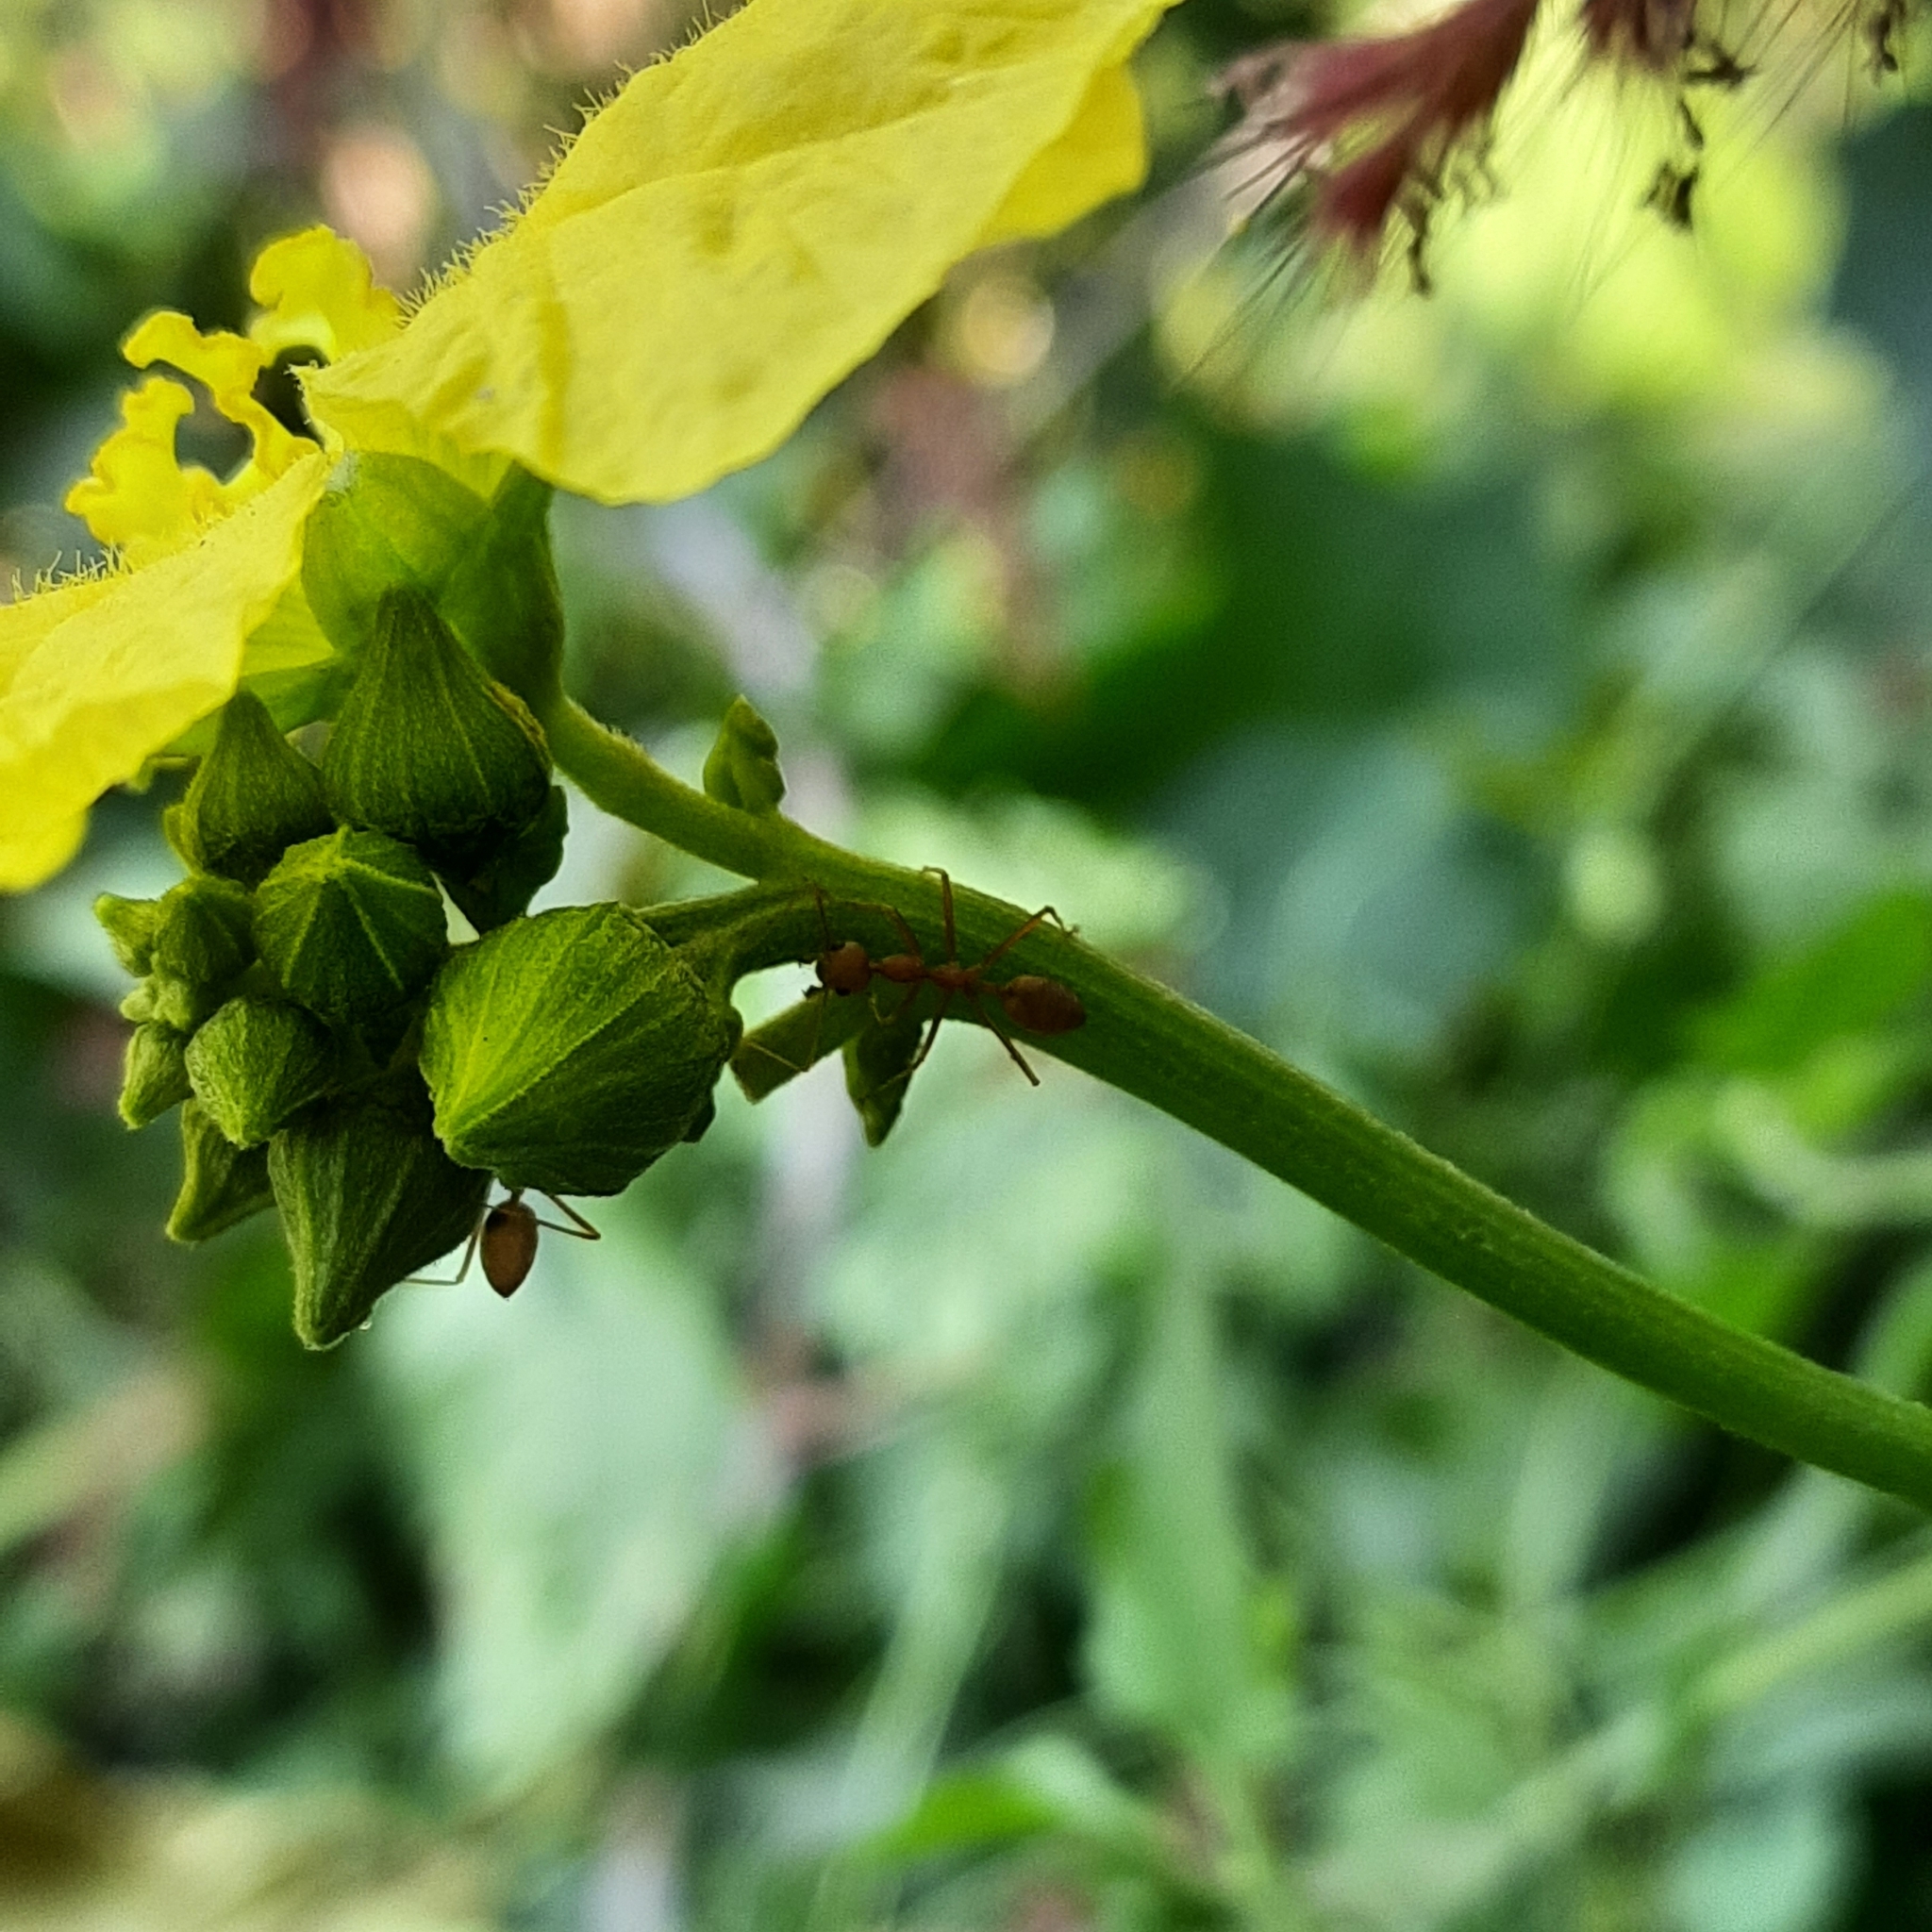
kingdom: Animalia
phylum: Arthropoda
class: Insecta
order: Hymenoptera
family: Formicidae
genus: Oecophylla
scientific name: Oecophylla smaragdina
